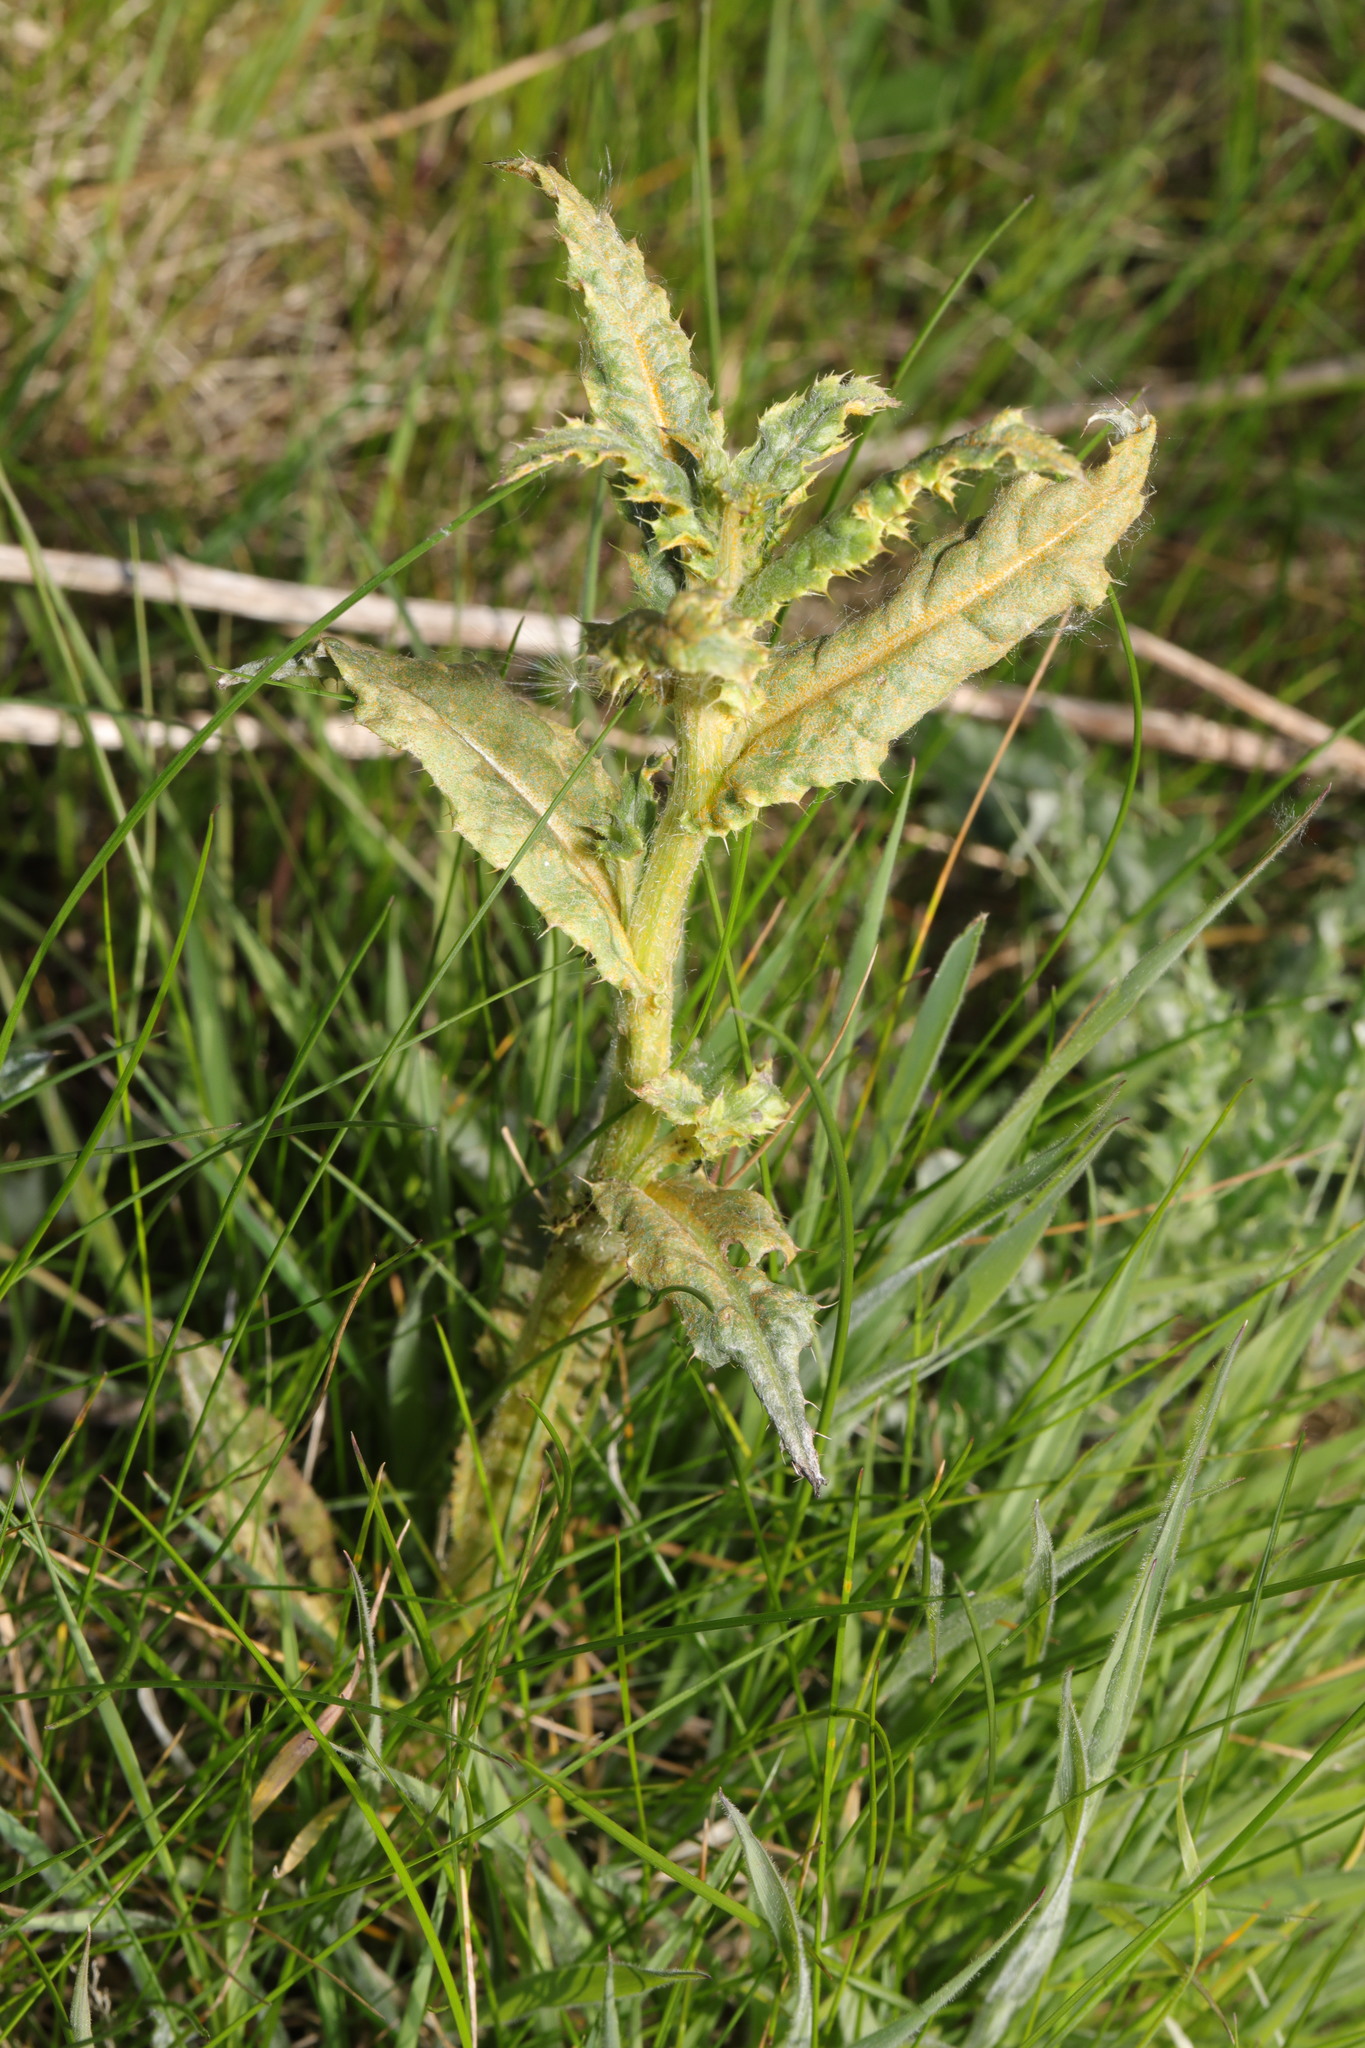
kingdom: Fungi
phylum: Basidiomycota
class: Pucciniomycetes
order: Pucciniales
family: Pucciniaceae
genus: Puccinia
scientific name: Puccinia suaveolens
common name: Thistle rust
